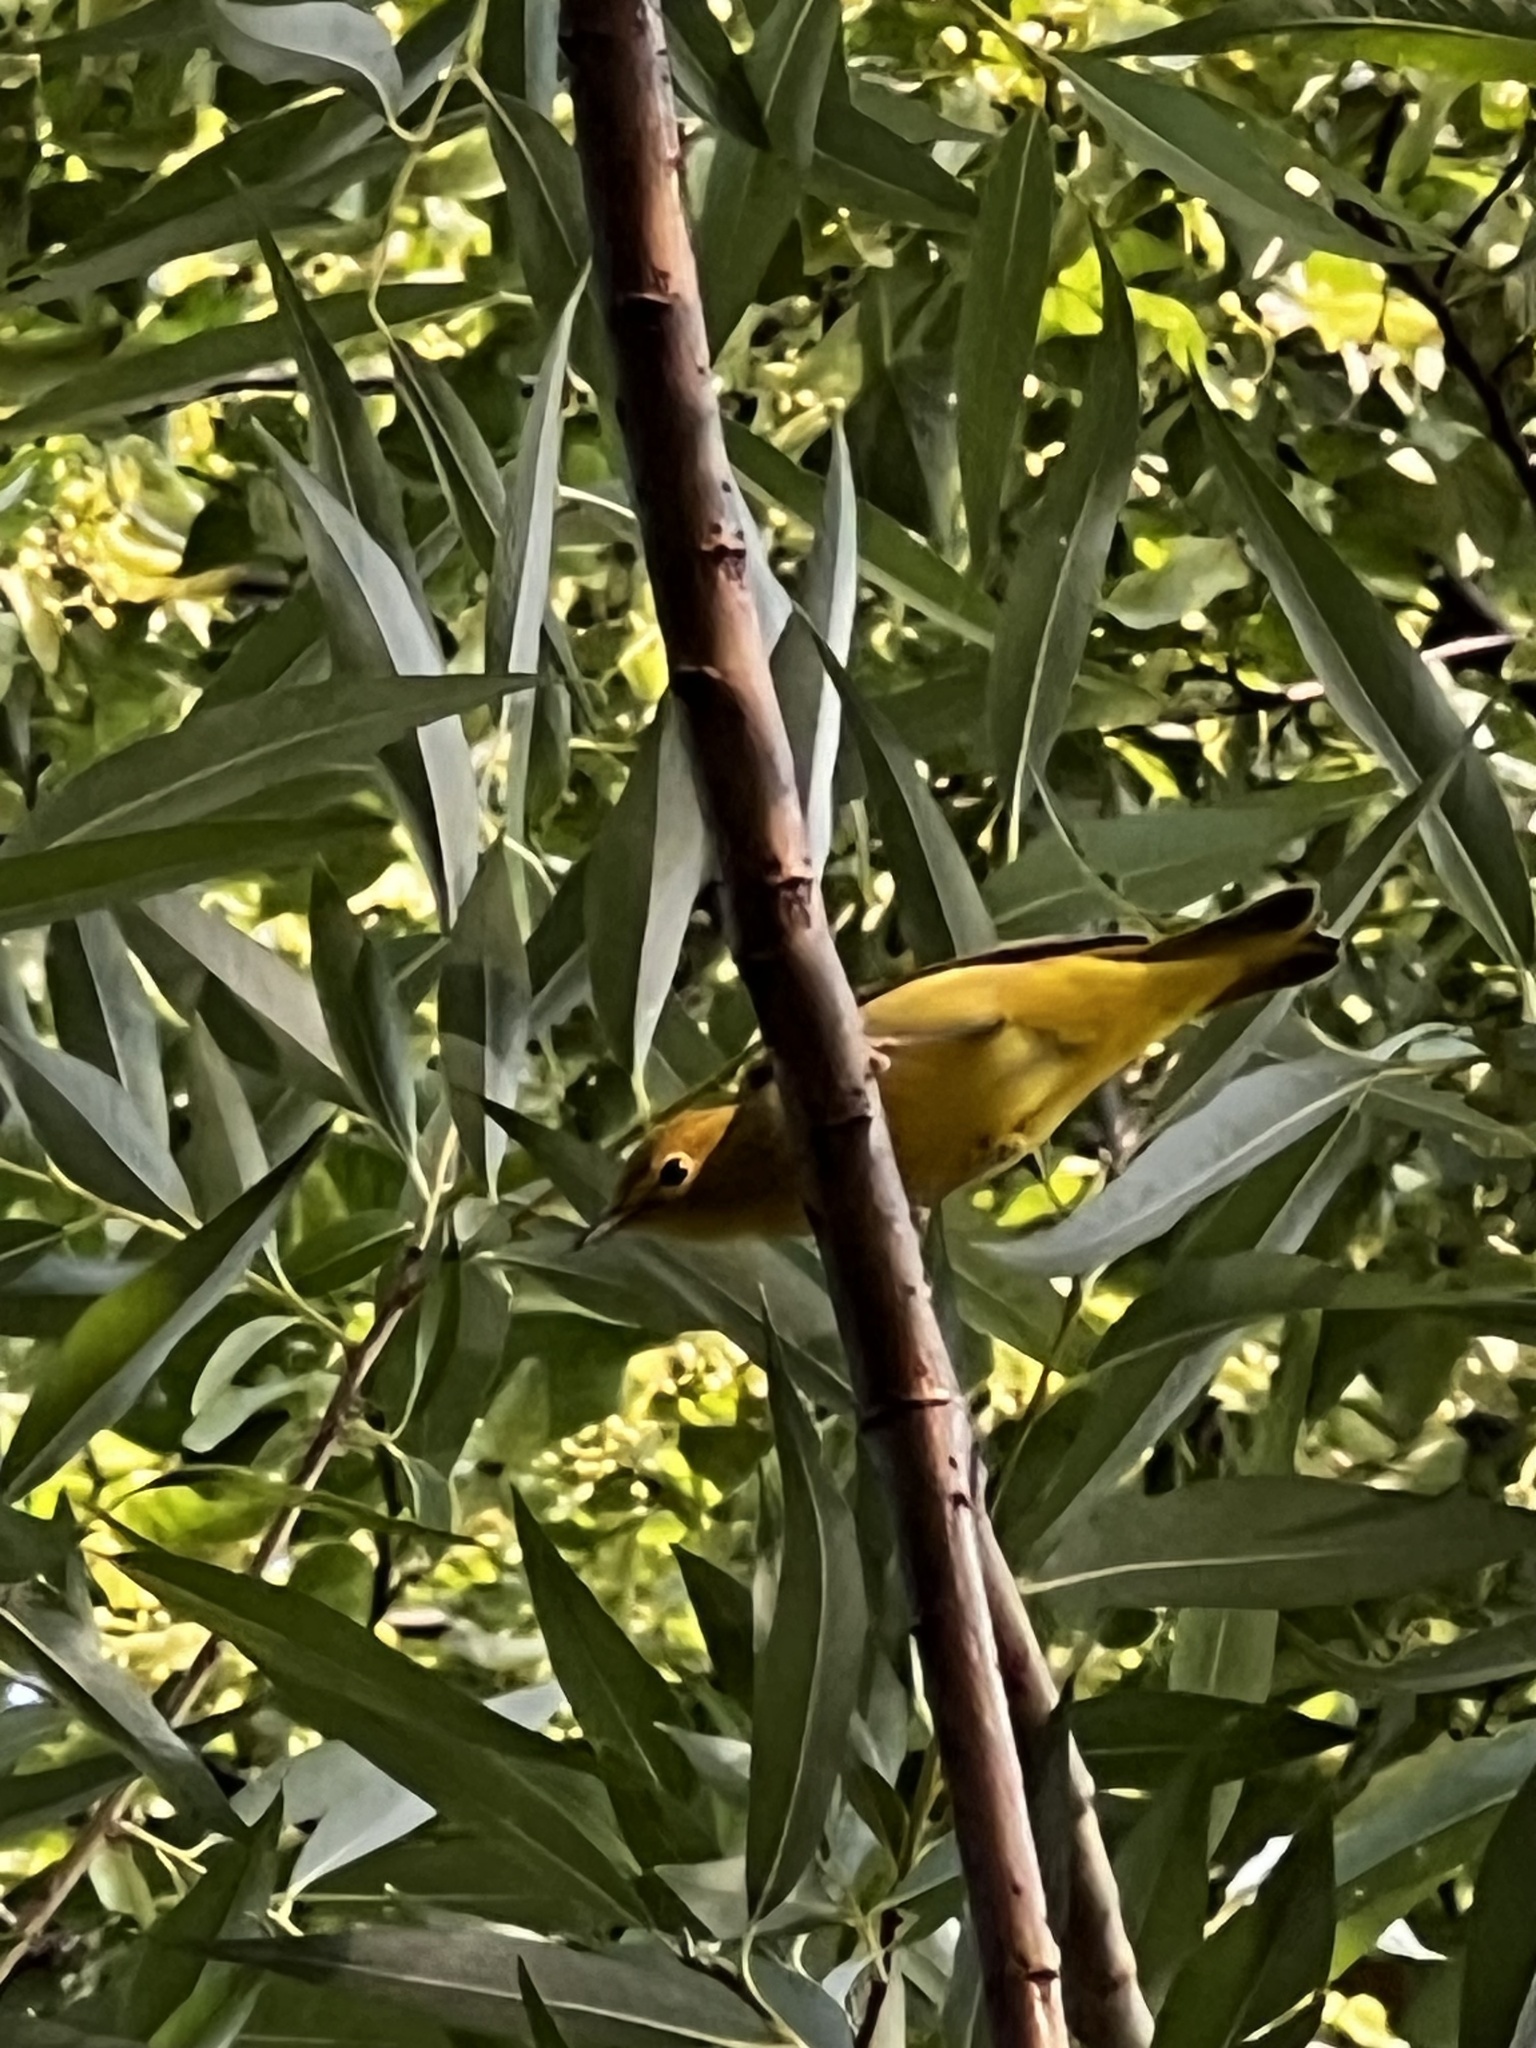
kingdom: Animalia
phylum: Chordata
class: Aves
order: Passeriformes
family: Parulidae
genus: Setophaga
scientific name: Setophaga petechia
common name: Yellow warbler
